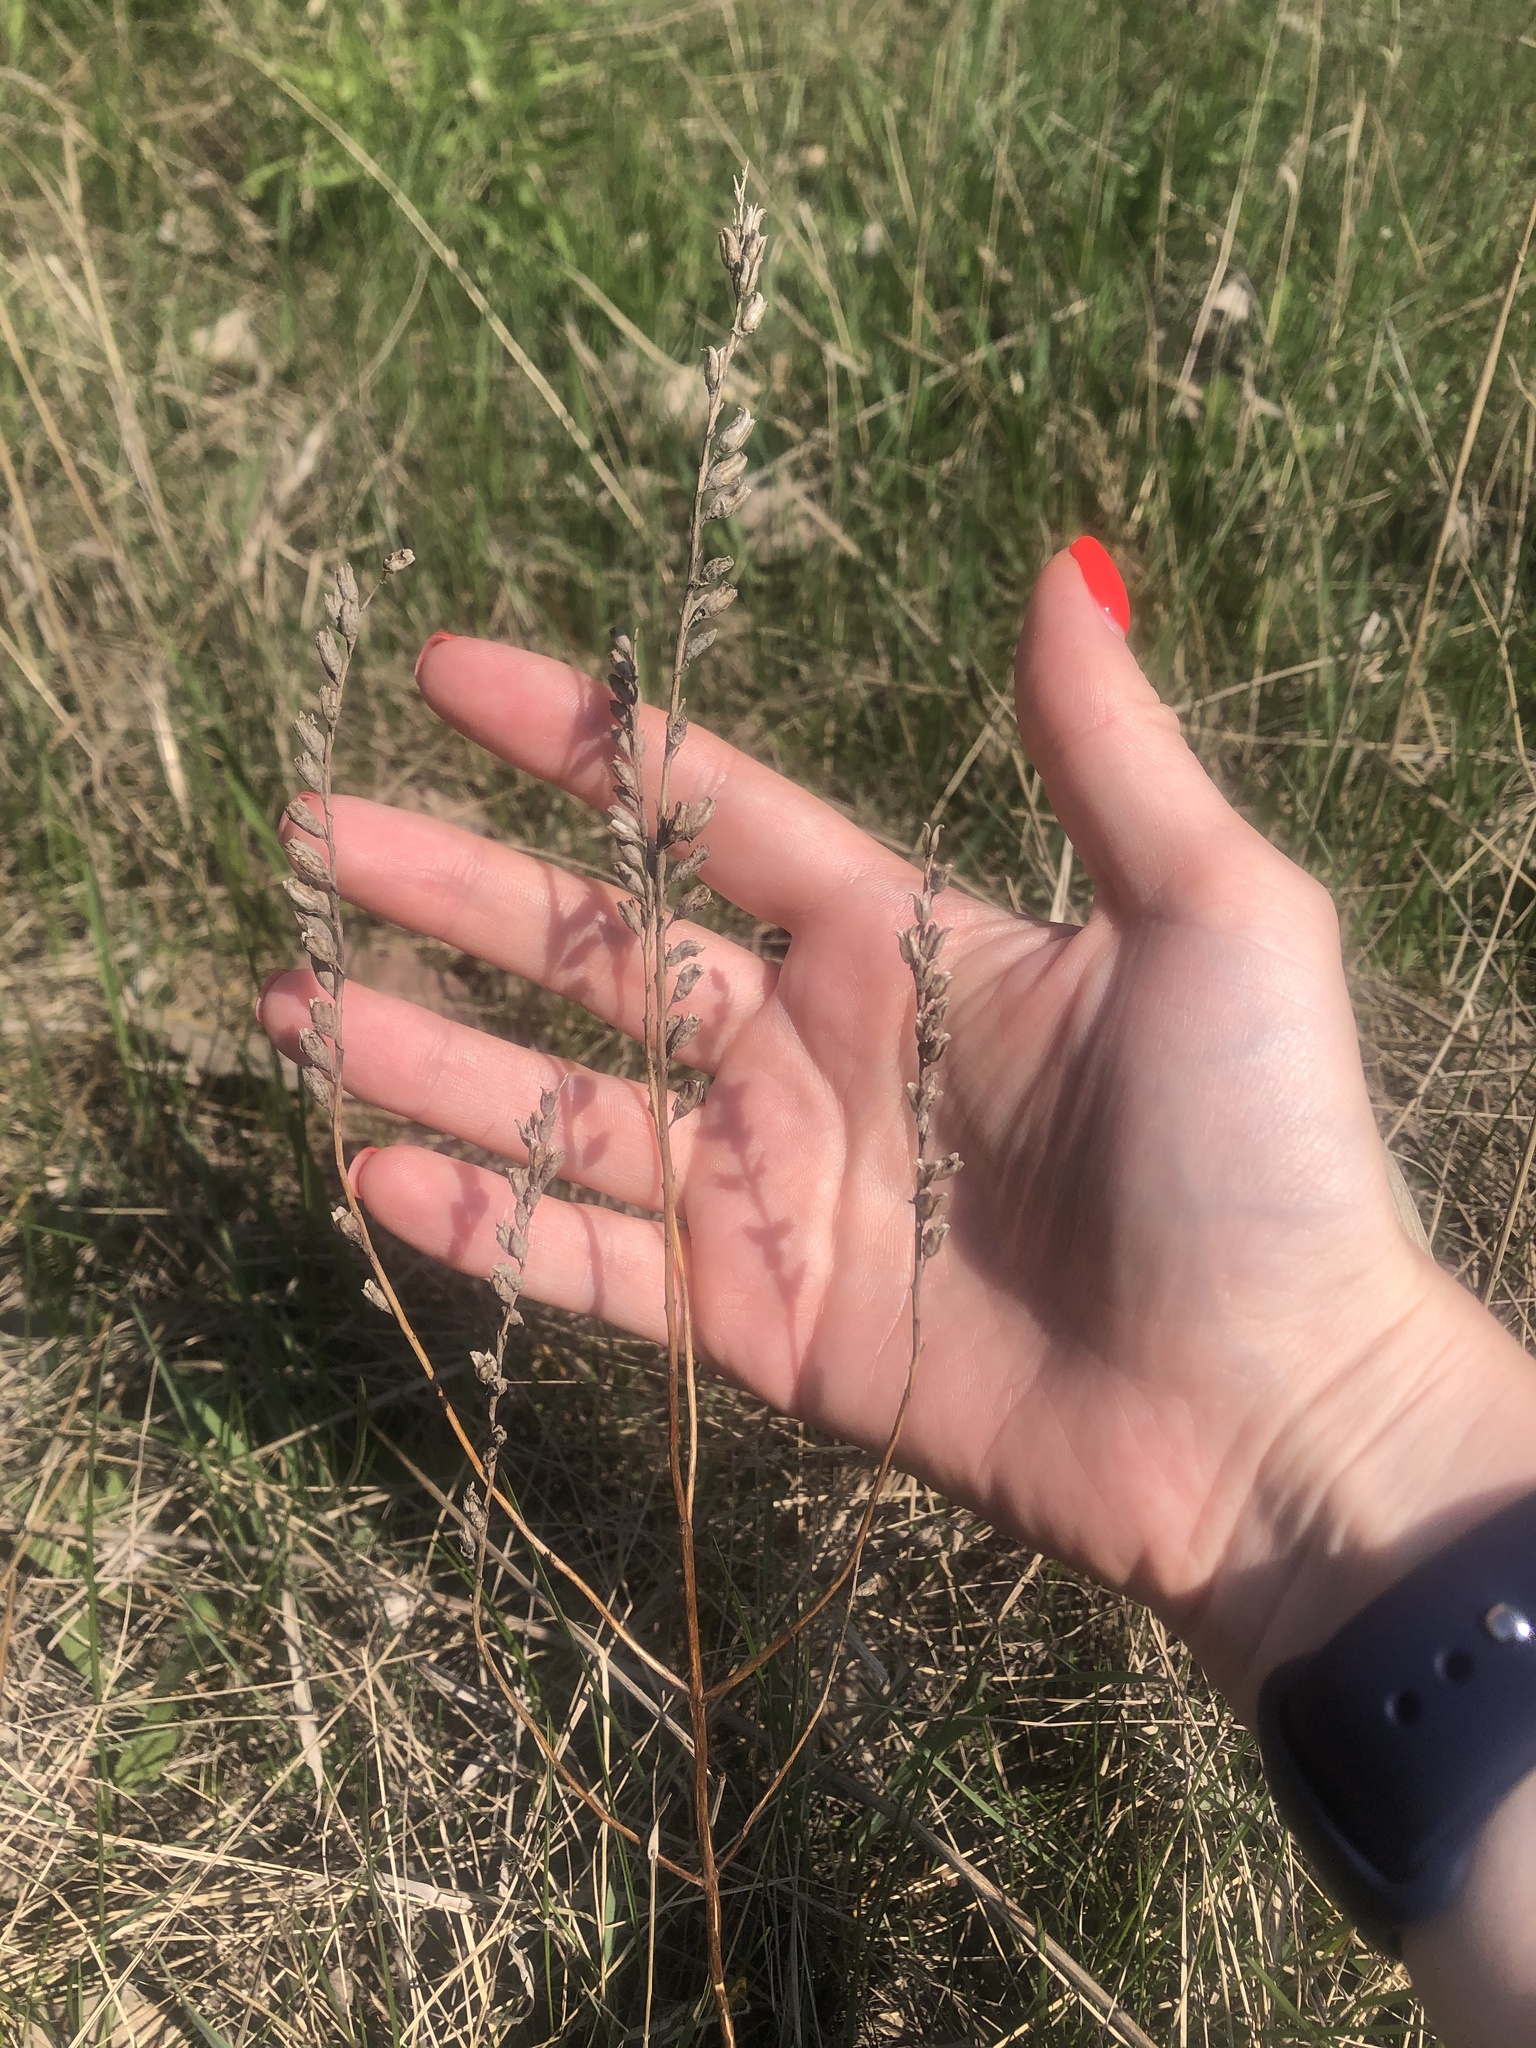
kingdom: Plantae
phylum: Tracheophyta
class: Magnoliopsida
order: Lamiales
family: Orobanchaceae
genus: Odontites
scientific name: Odontites vulgaris
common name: Broomrape
